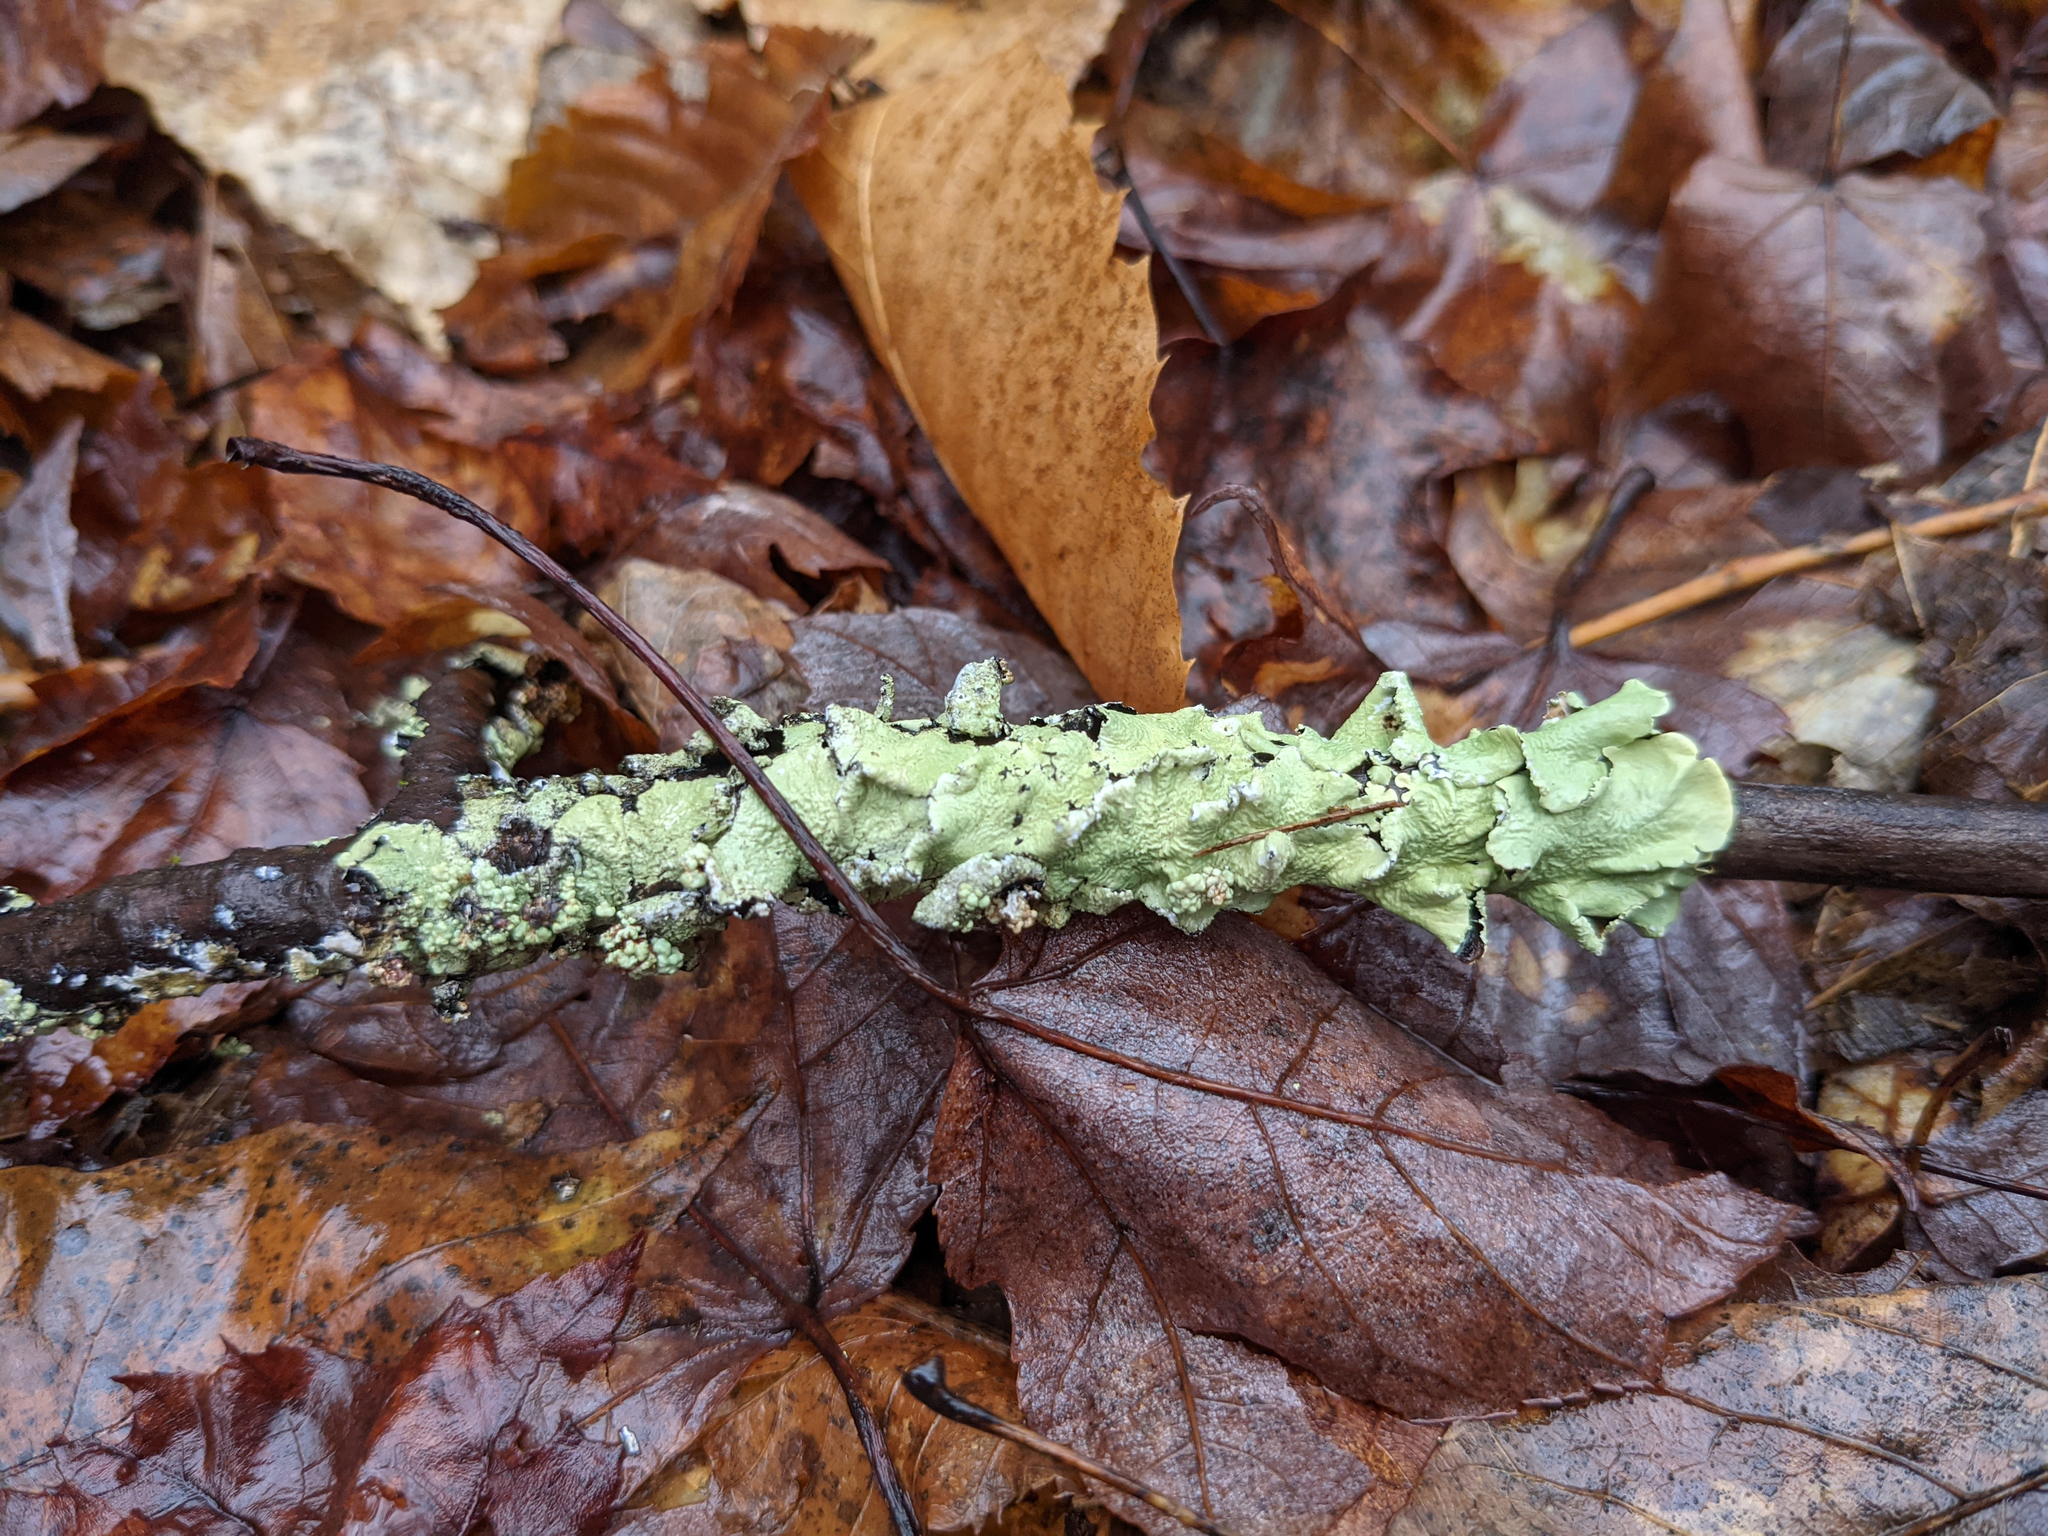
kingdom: Fungi
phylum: Ascomycota
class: Lecanoromycetes
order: Lecanorales
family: Parmeliaceae
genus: Flavoparmelia
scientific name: Flavoparmelia caperata
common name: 40-mile per hour lichen
